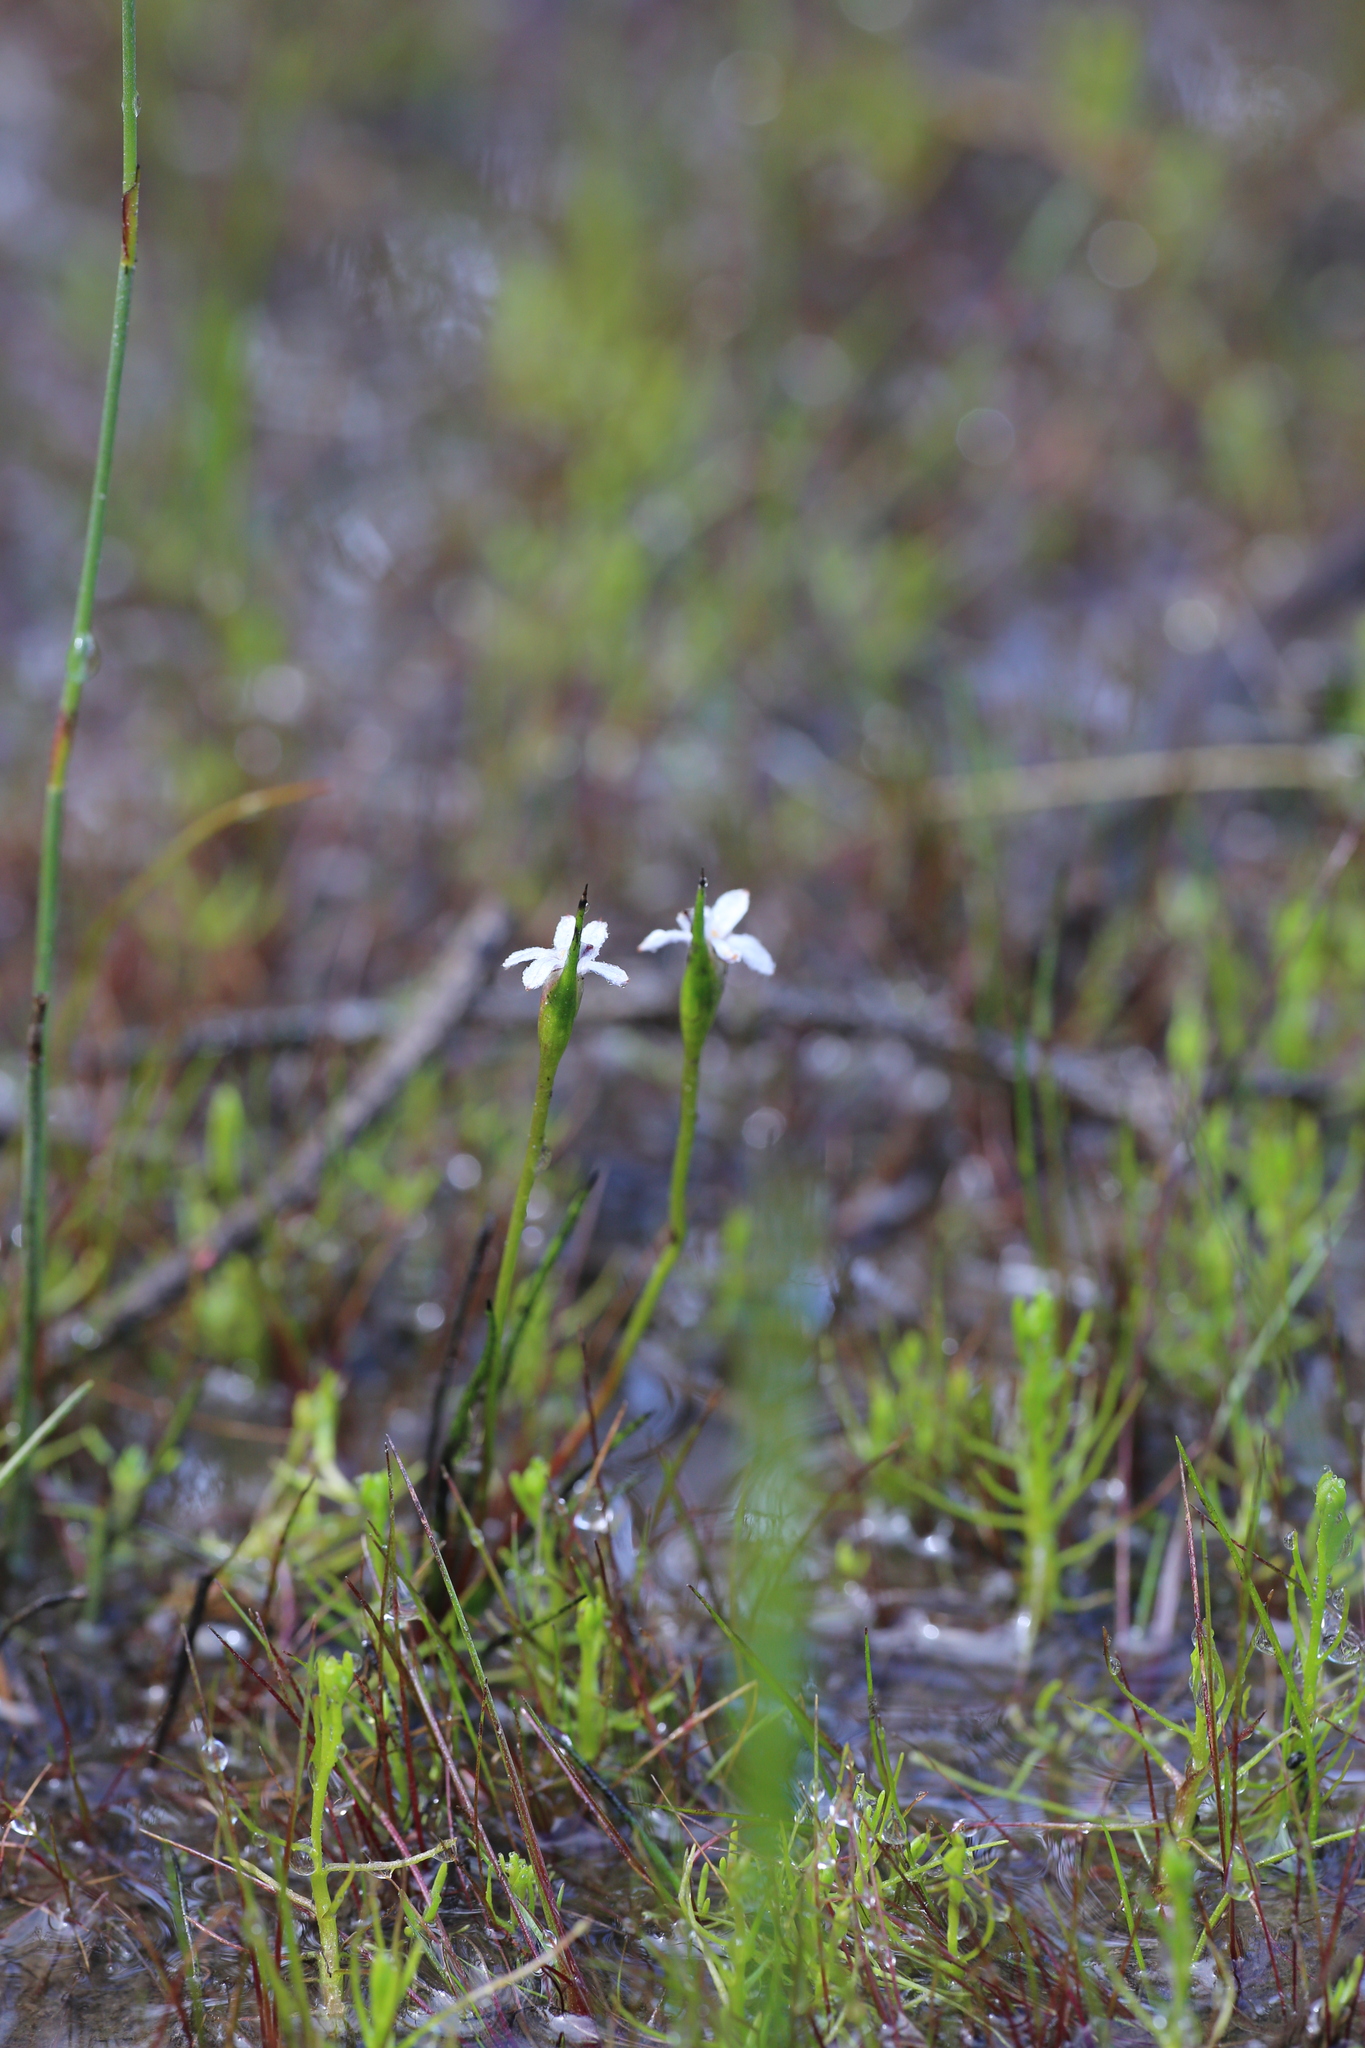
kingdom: Plantae
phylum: Tracheophyta
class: Liliopsida
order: Commelinales
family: Haemodoraceae
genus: Tribonanthes
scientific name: Tribonanthes keigheryi
